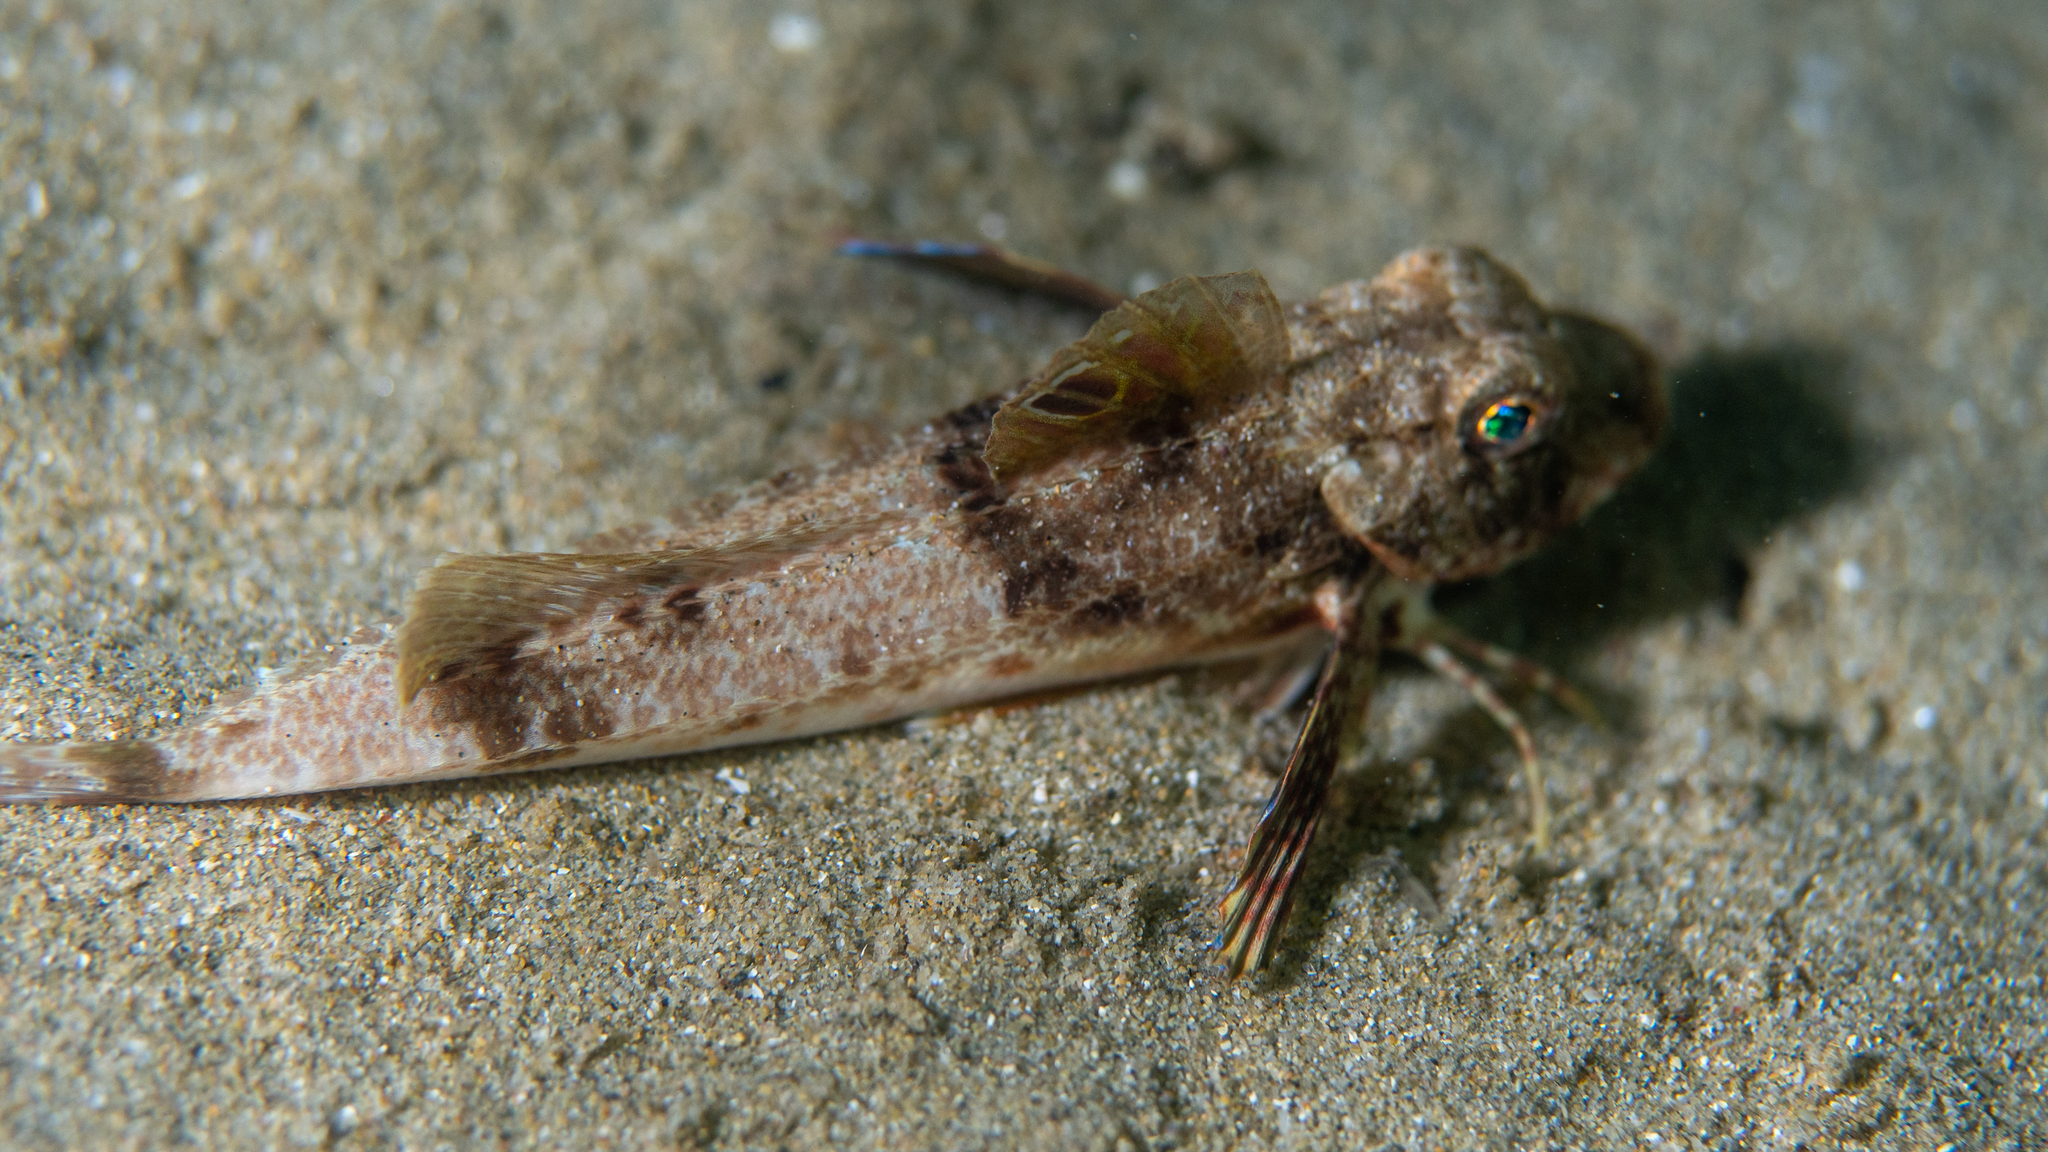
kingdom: Animalia
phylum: Chordata
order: Scorpaeniformes
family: Triglidae
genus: Lepidotrigla
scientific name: Lepidotrigla vanessa
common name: Butterfly gurnard
